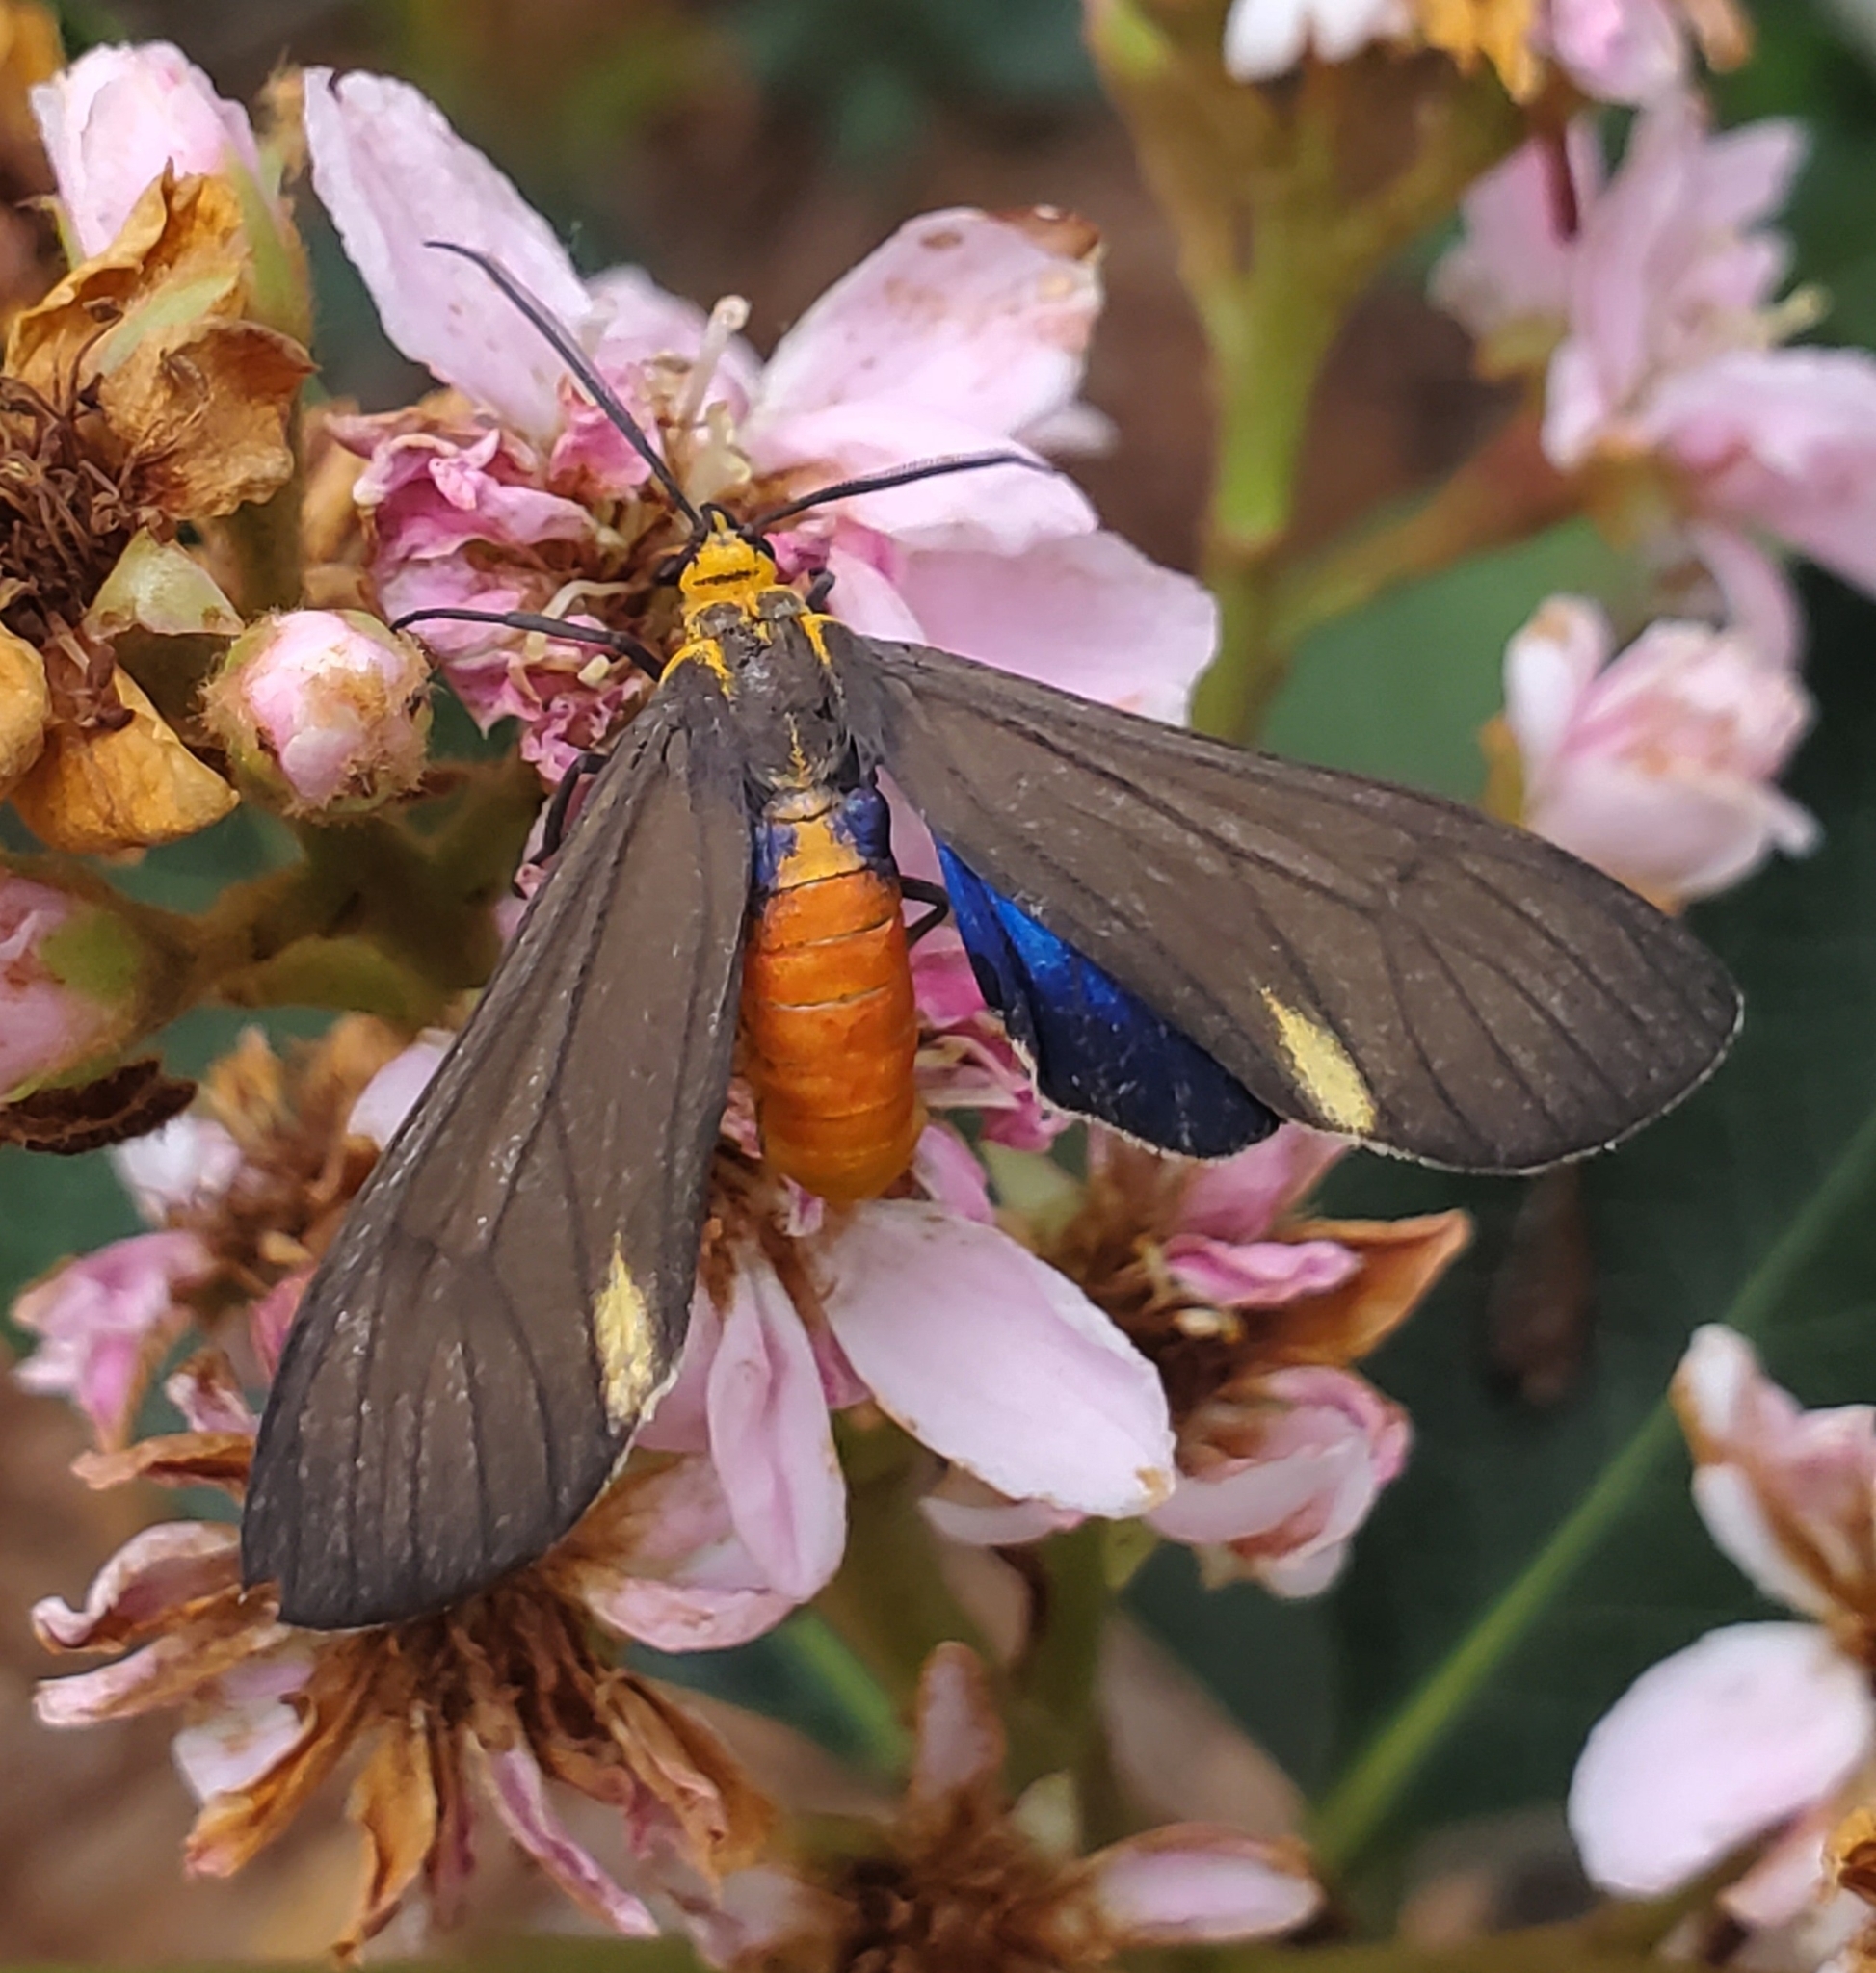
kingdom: Animalia
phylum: Arthropoda
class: Insecta
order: Lepidoptera
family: Erebidae
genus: Dahana
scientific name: Dahana atripennis
